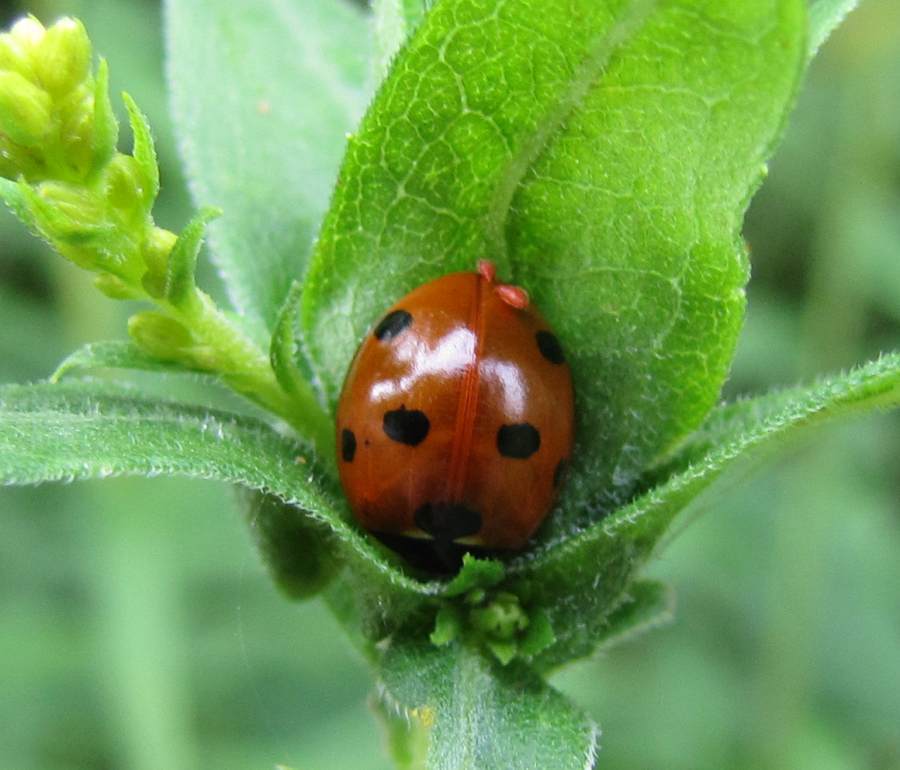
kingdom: Animalia
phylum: Arthropoda
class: Insecta
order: Coleoptera
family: Coccinellidae
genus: Coccinella
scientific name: Coccinella septempunctata
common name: Sevenspotted lady beetle
